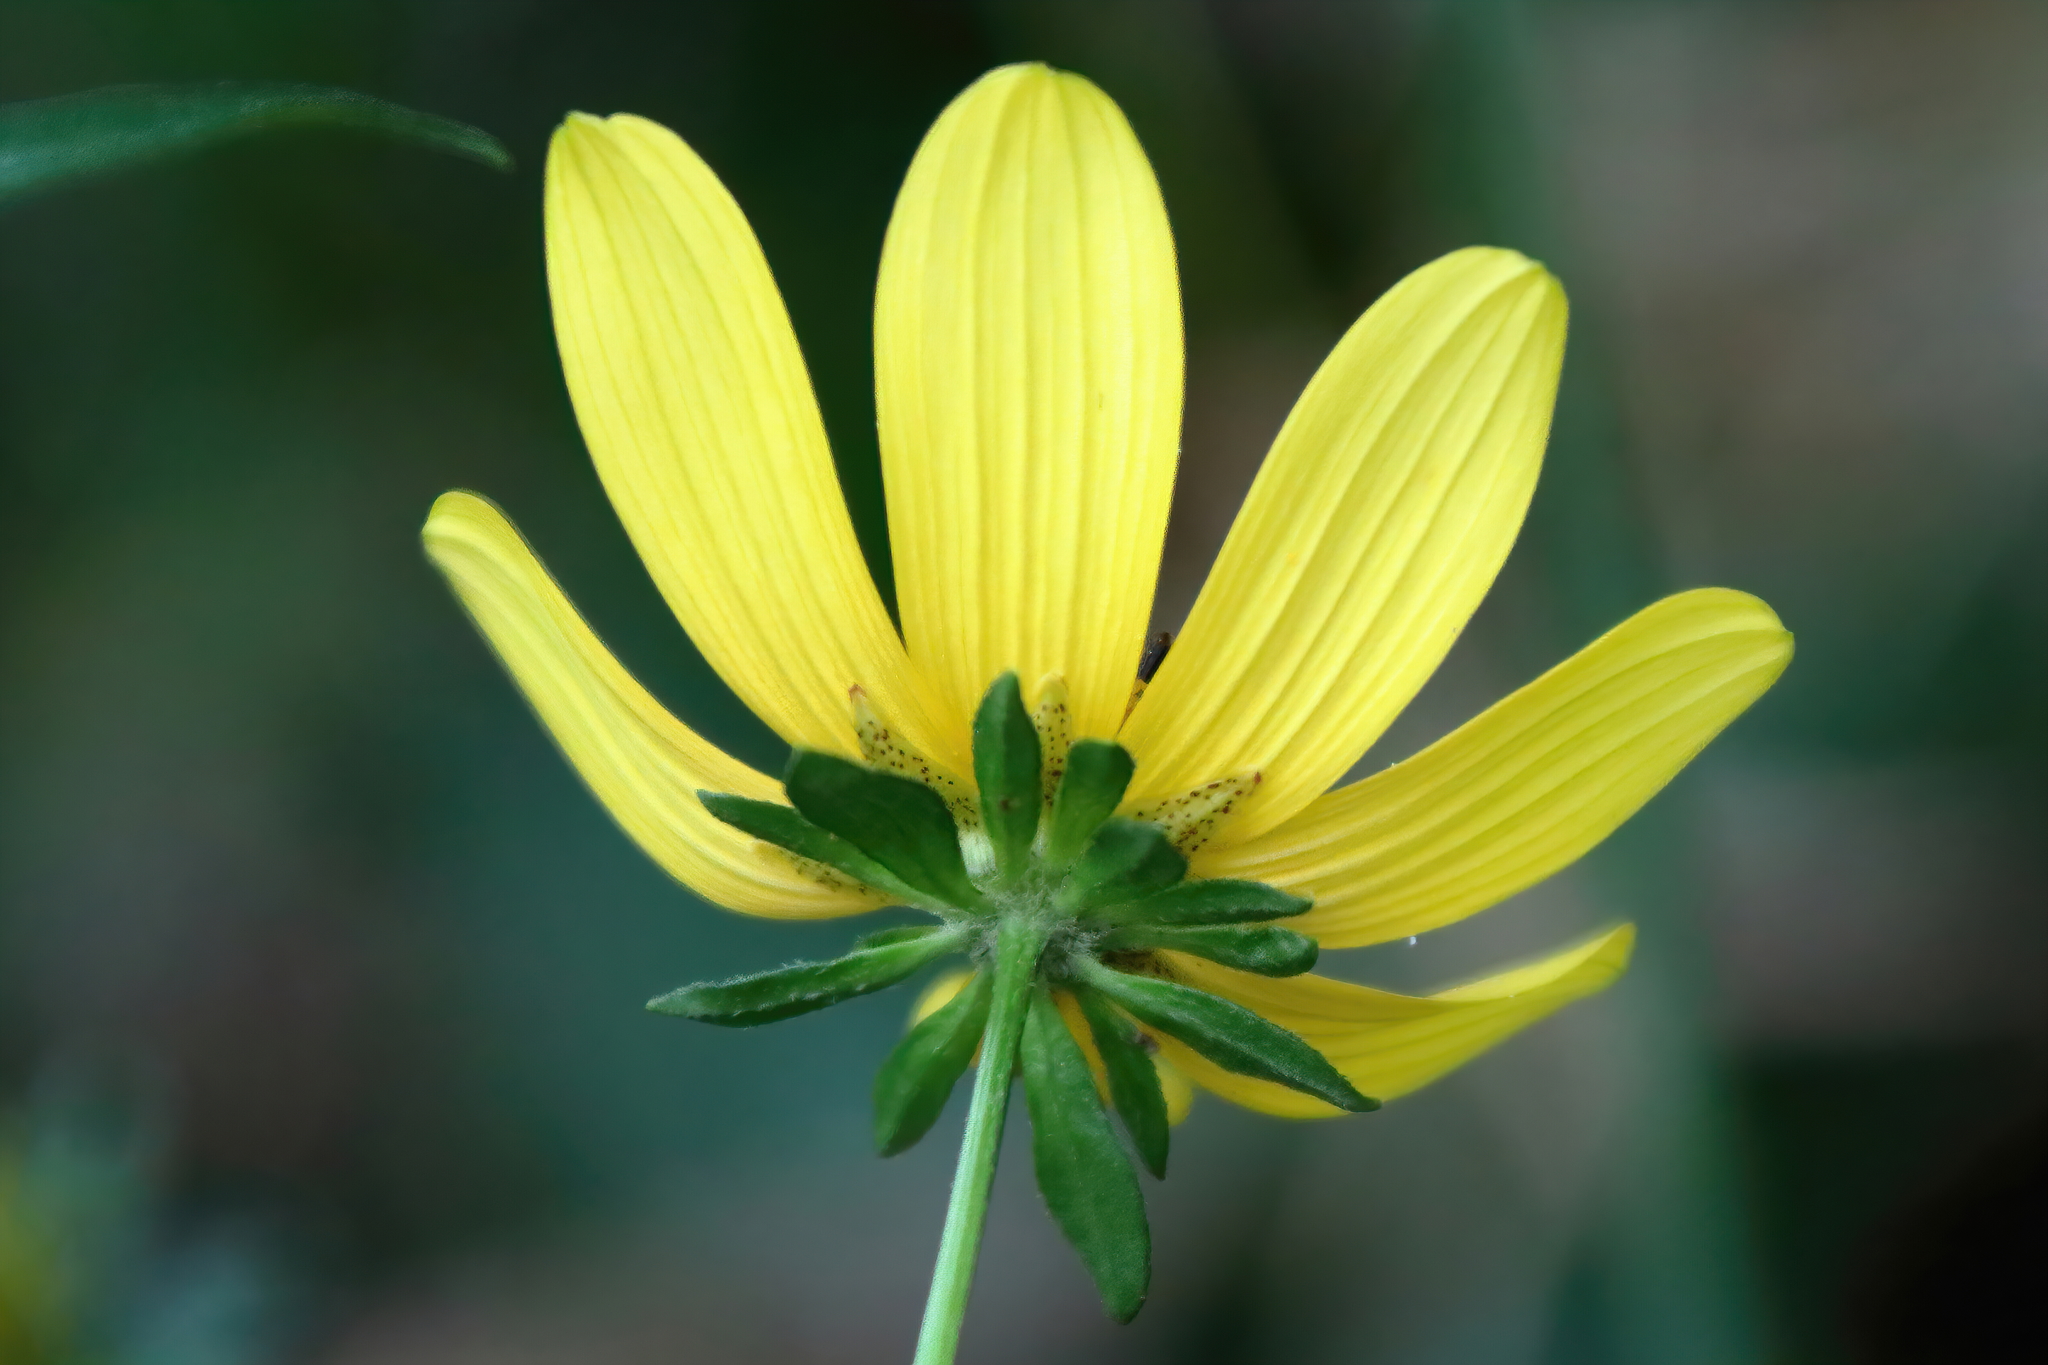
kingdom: Plantae
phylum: Tracheophyta
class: Magnoliopsida
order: Asterales
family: Asteraceae
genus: Bidens
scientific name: Bidens mitis
